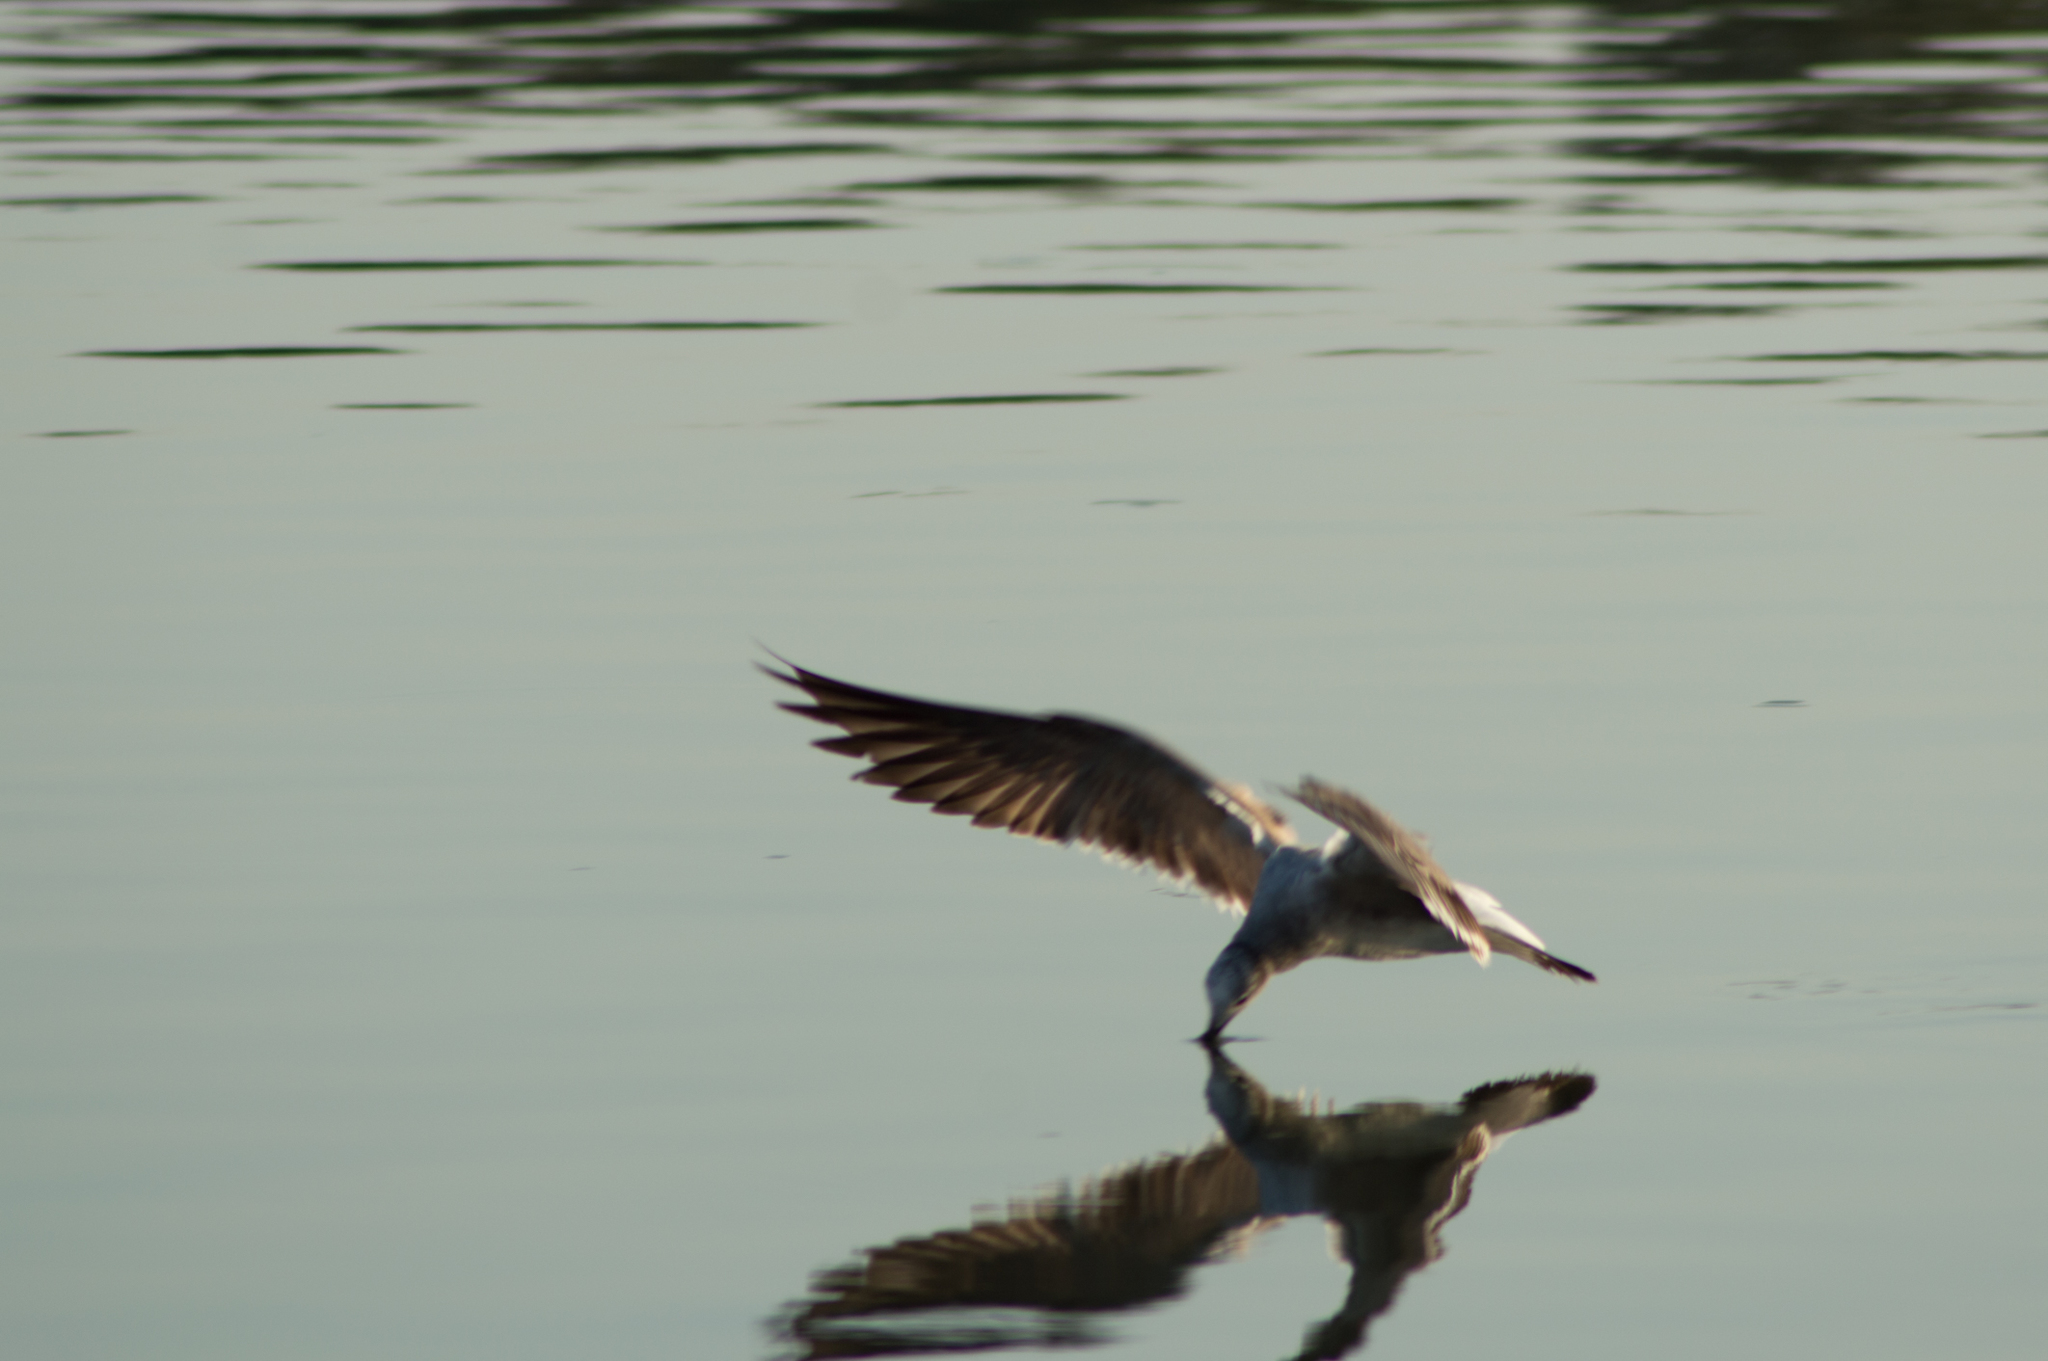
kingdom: Animalia
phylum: Chordata
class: Aves
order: Charadriiformes
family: Laridae
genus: Leucophaeus
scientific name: Leucophaeus atricilla
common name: Laughing gull
